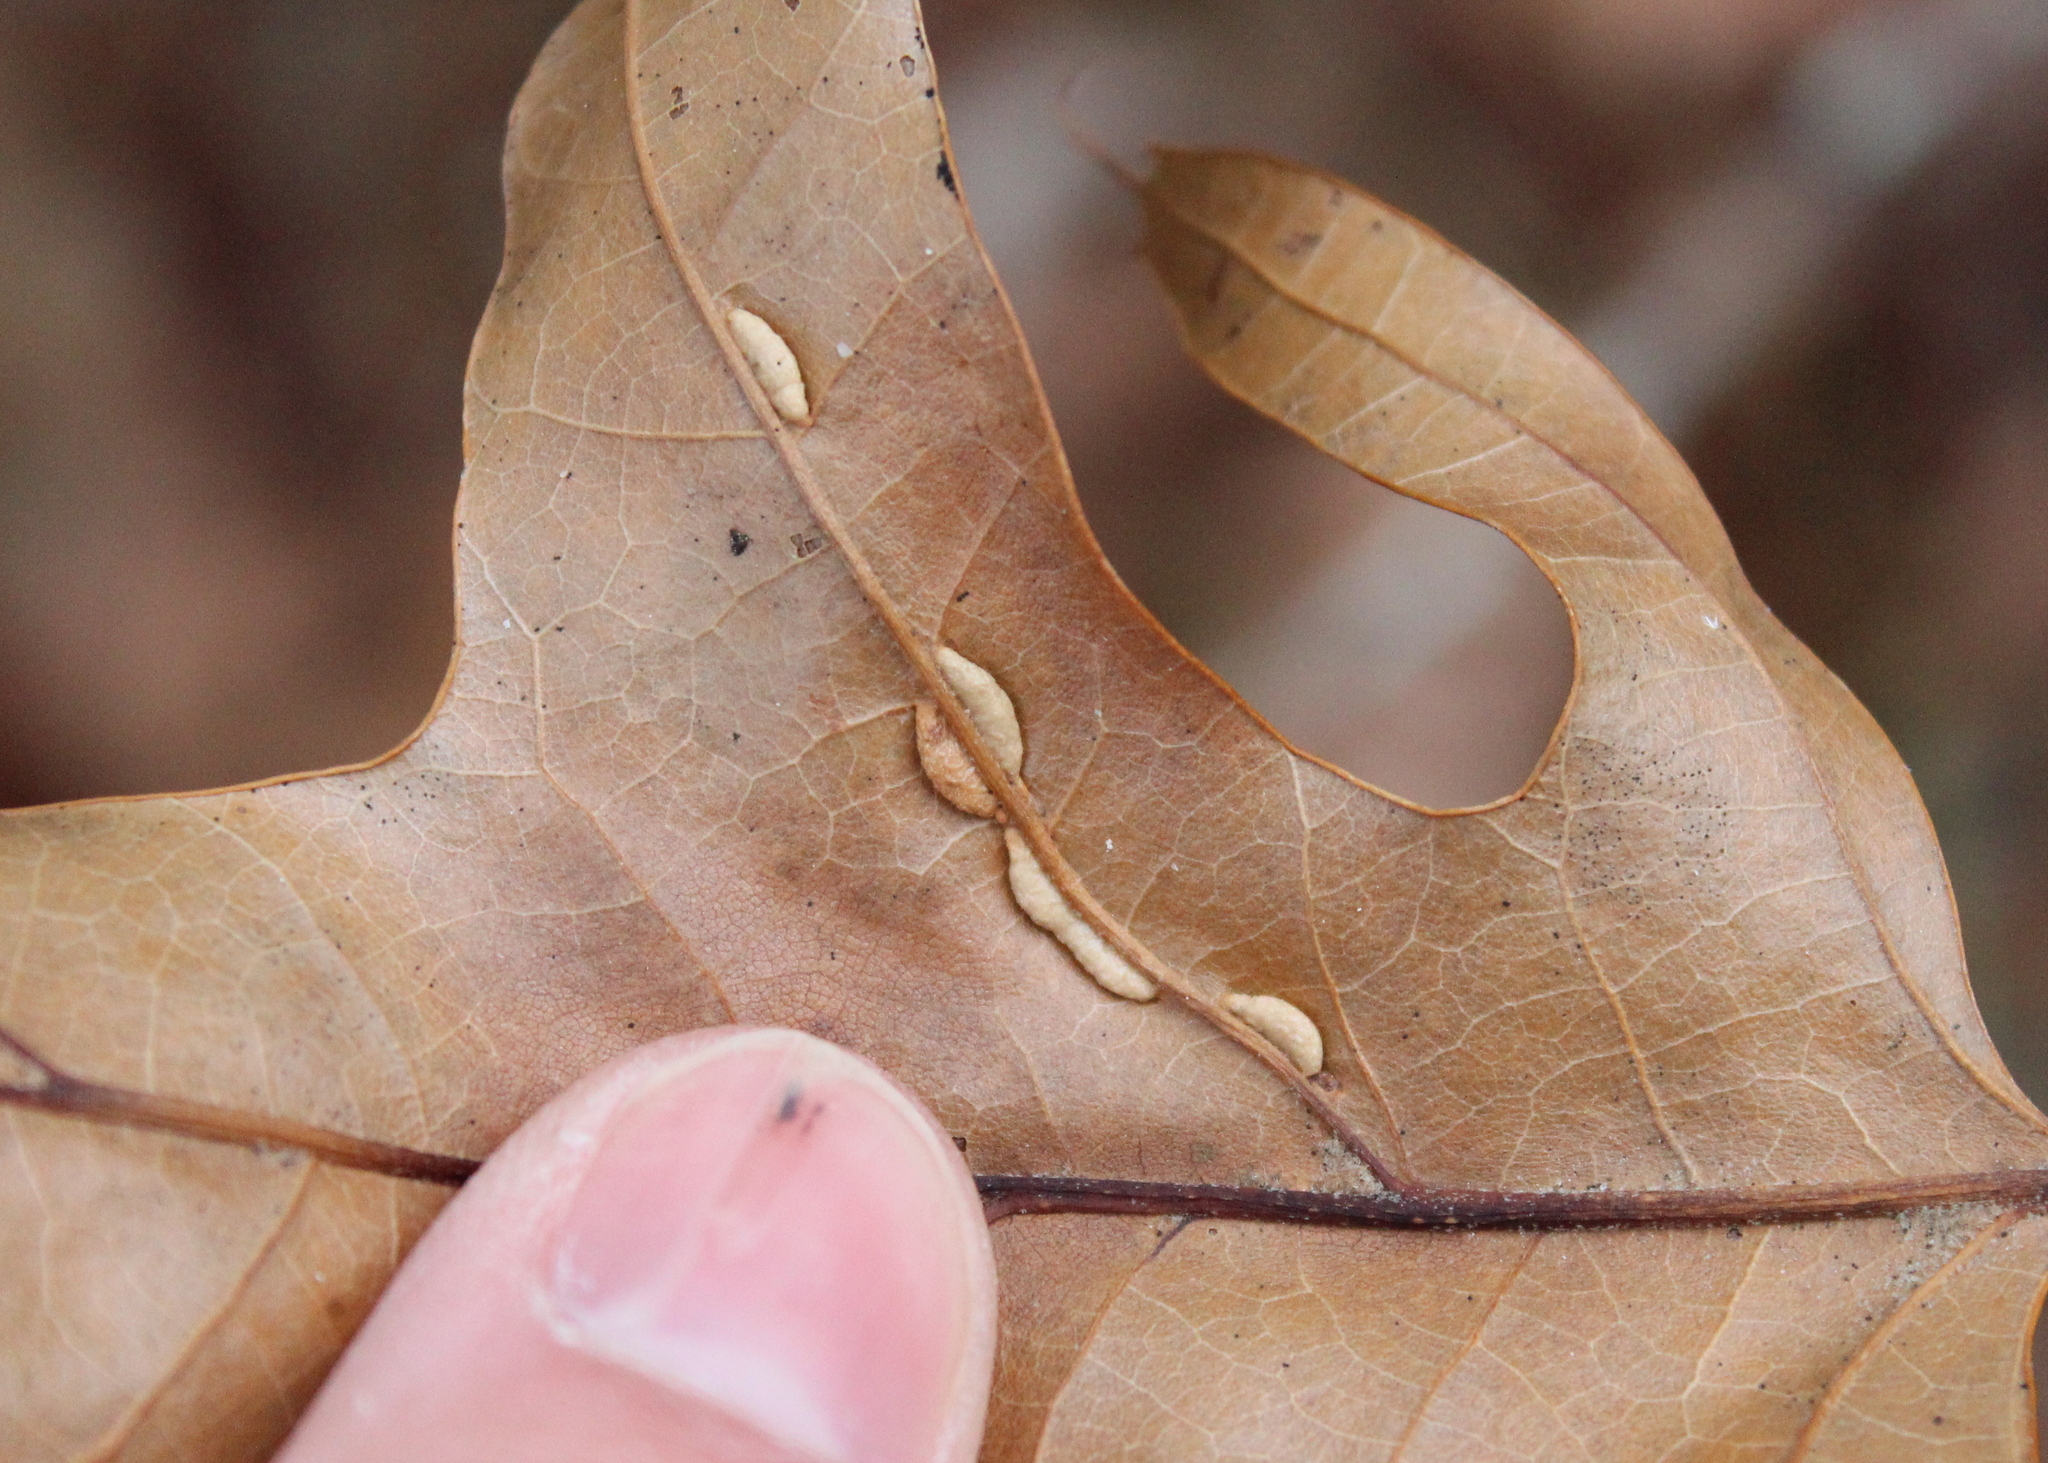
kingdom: Animalia
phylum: Arthropoda
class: Insecta
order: Diptera
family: Cecidomyiidae
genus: Macrodiplosis
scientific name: Macrodiplosis q-orucum
